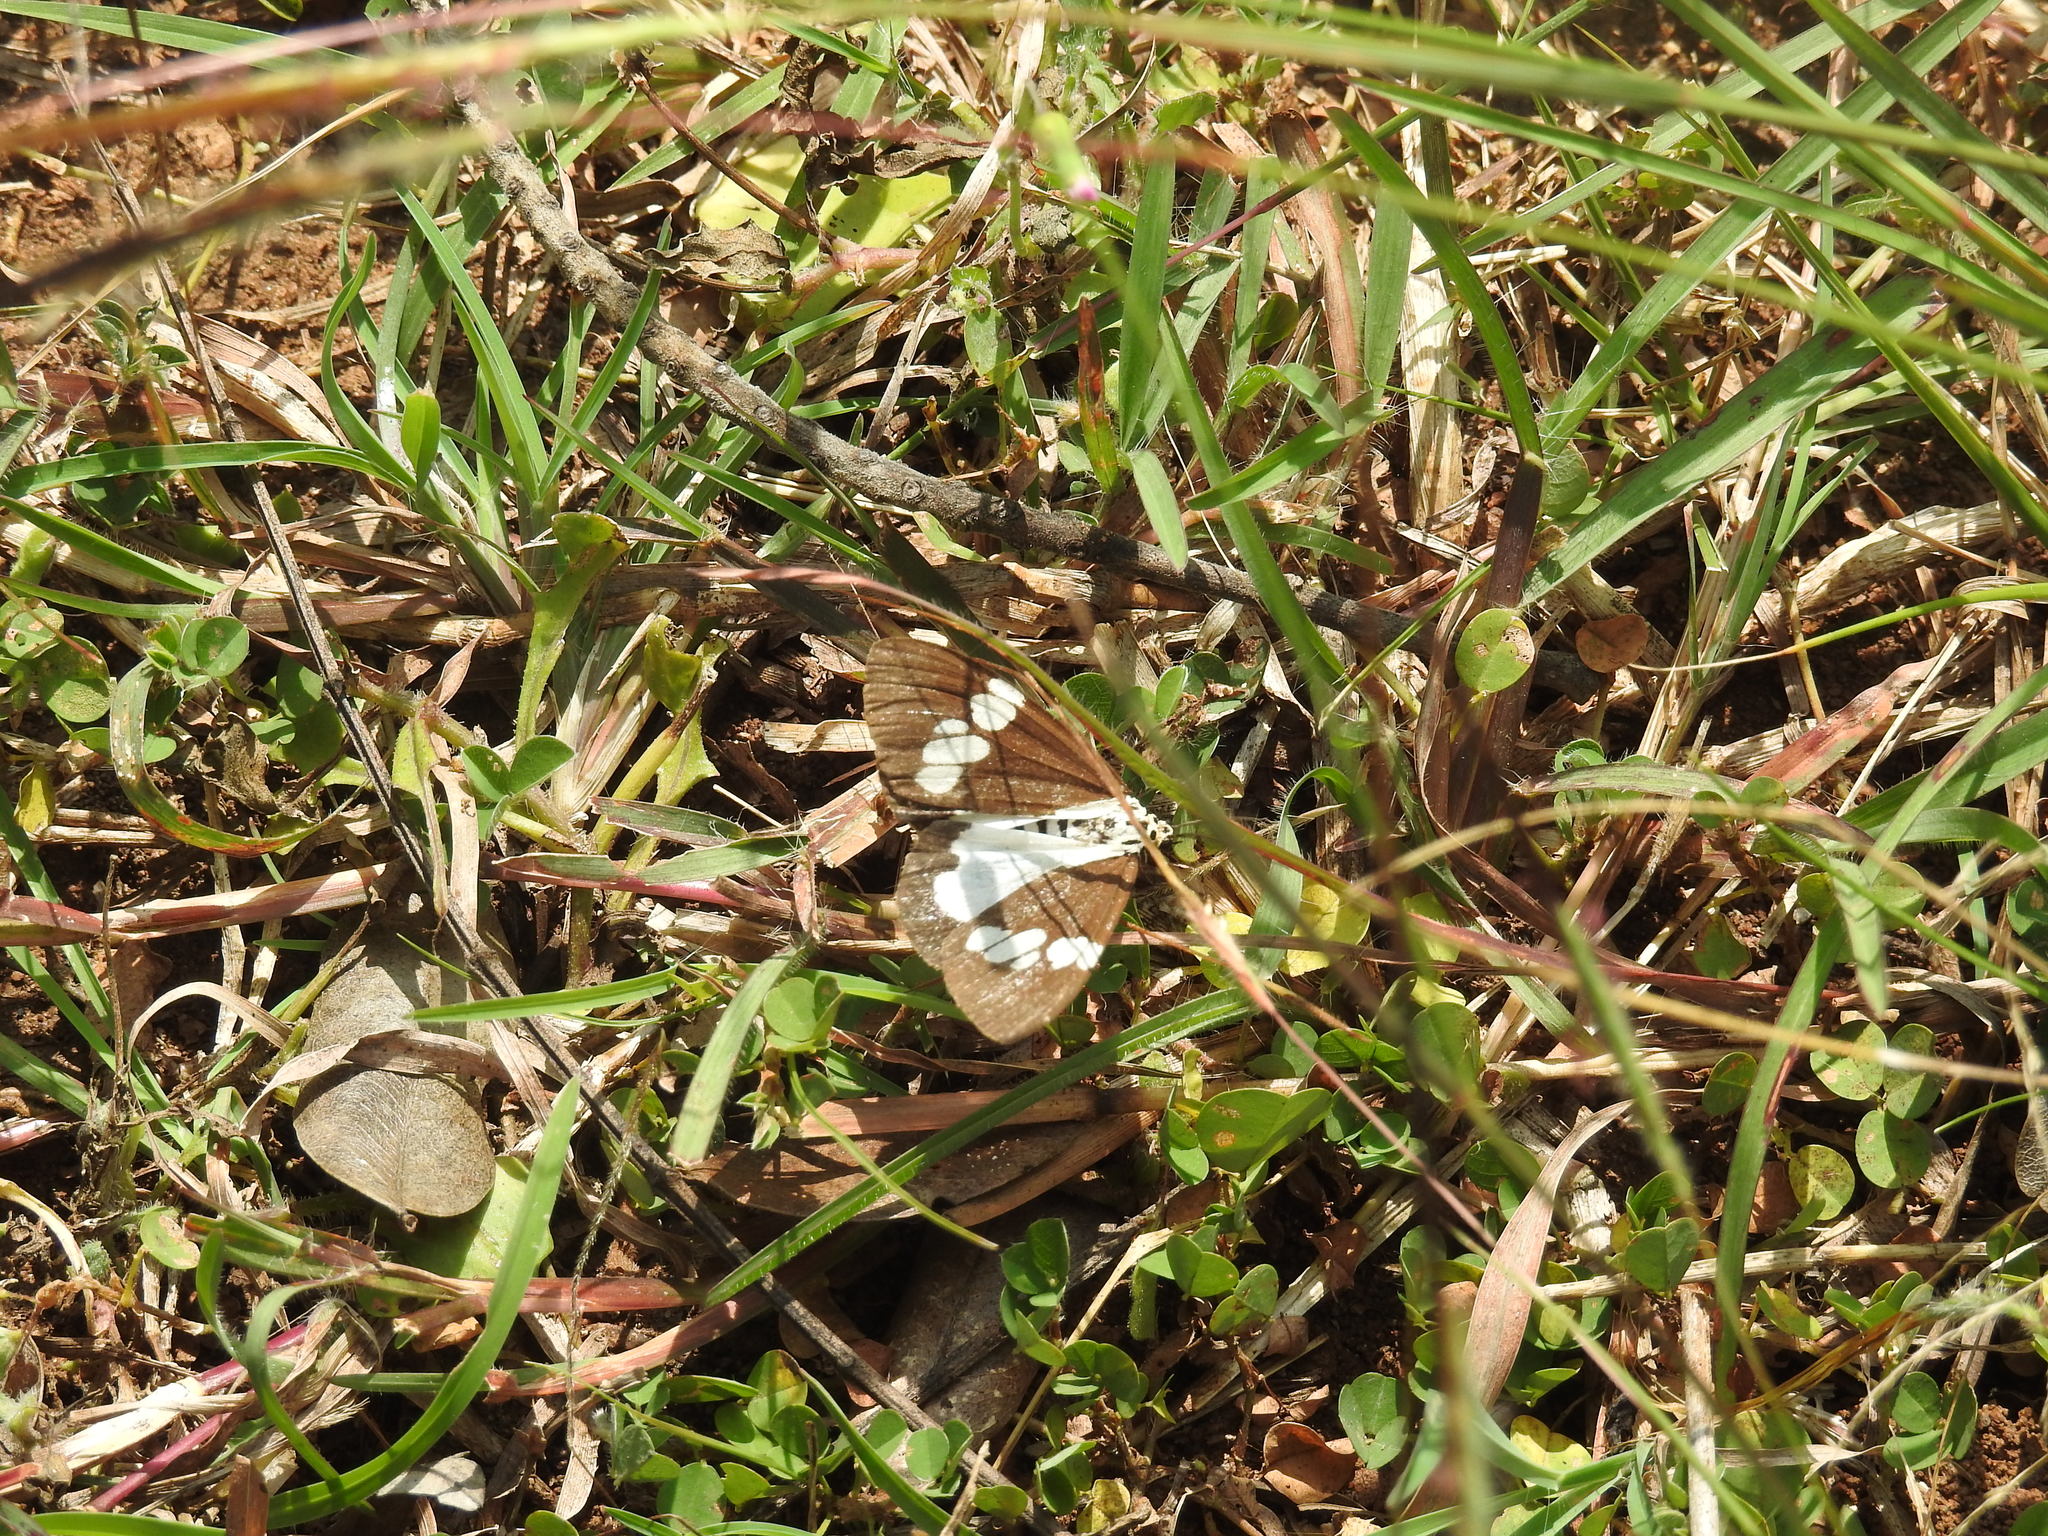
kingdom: Animalia
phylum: Arthropoda
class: Insecta
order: Lepidoptera
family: Erebidae
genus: Nyctemera
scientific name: Nyctemera lacticinia
